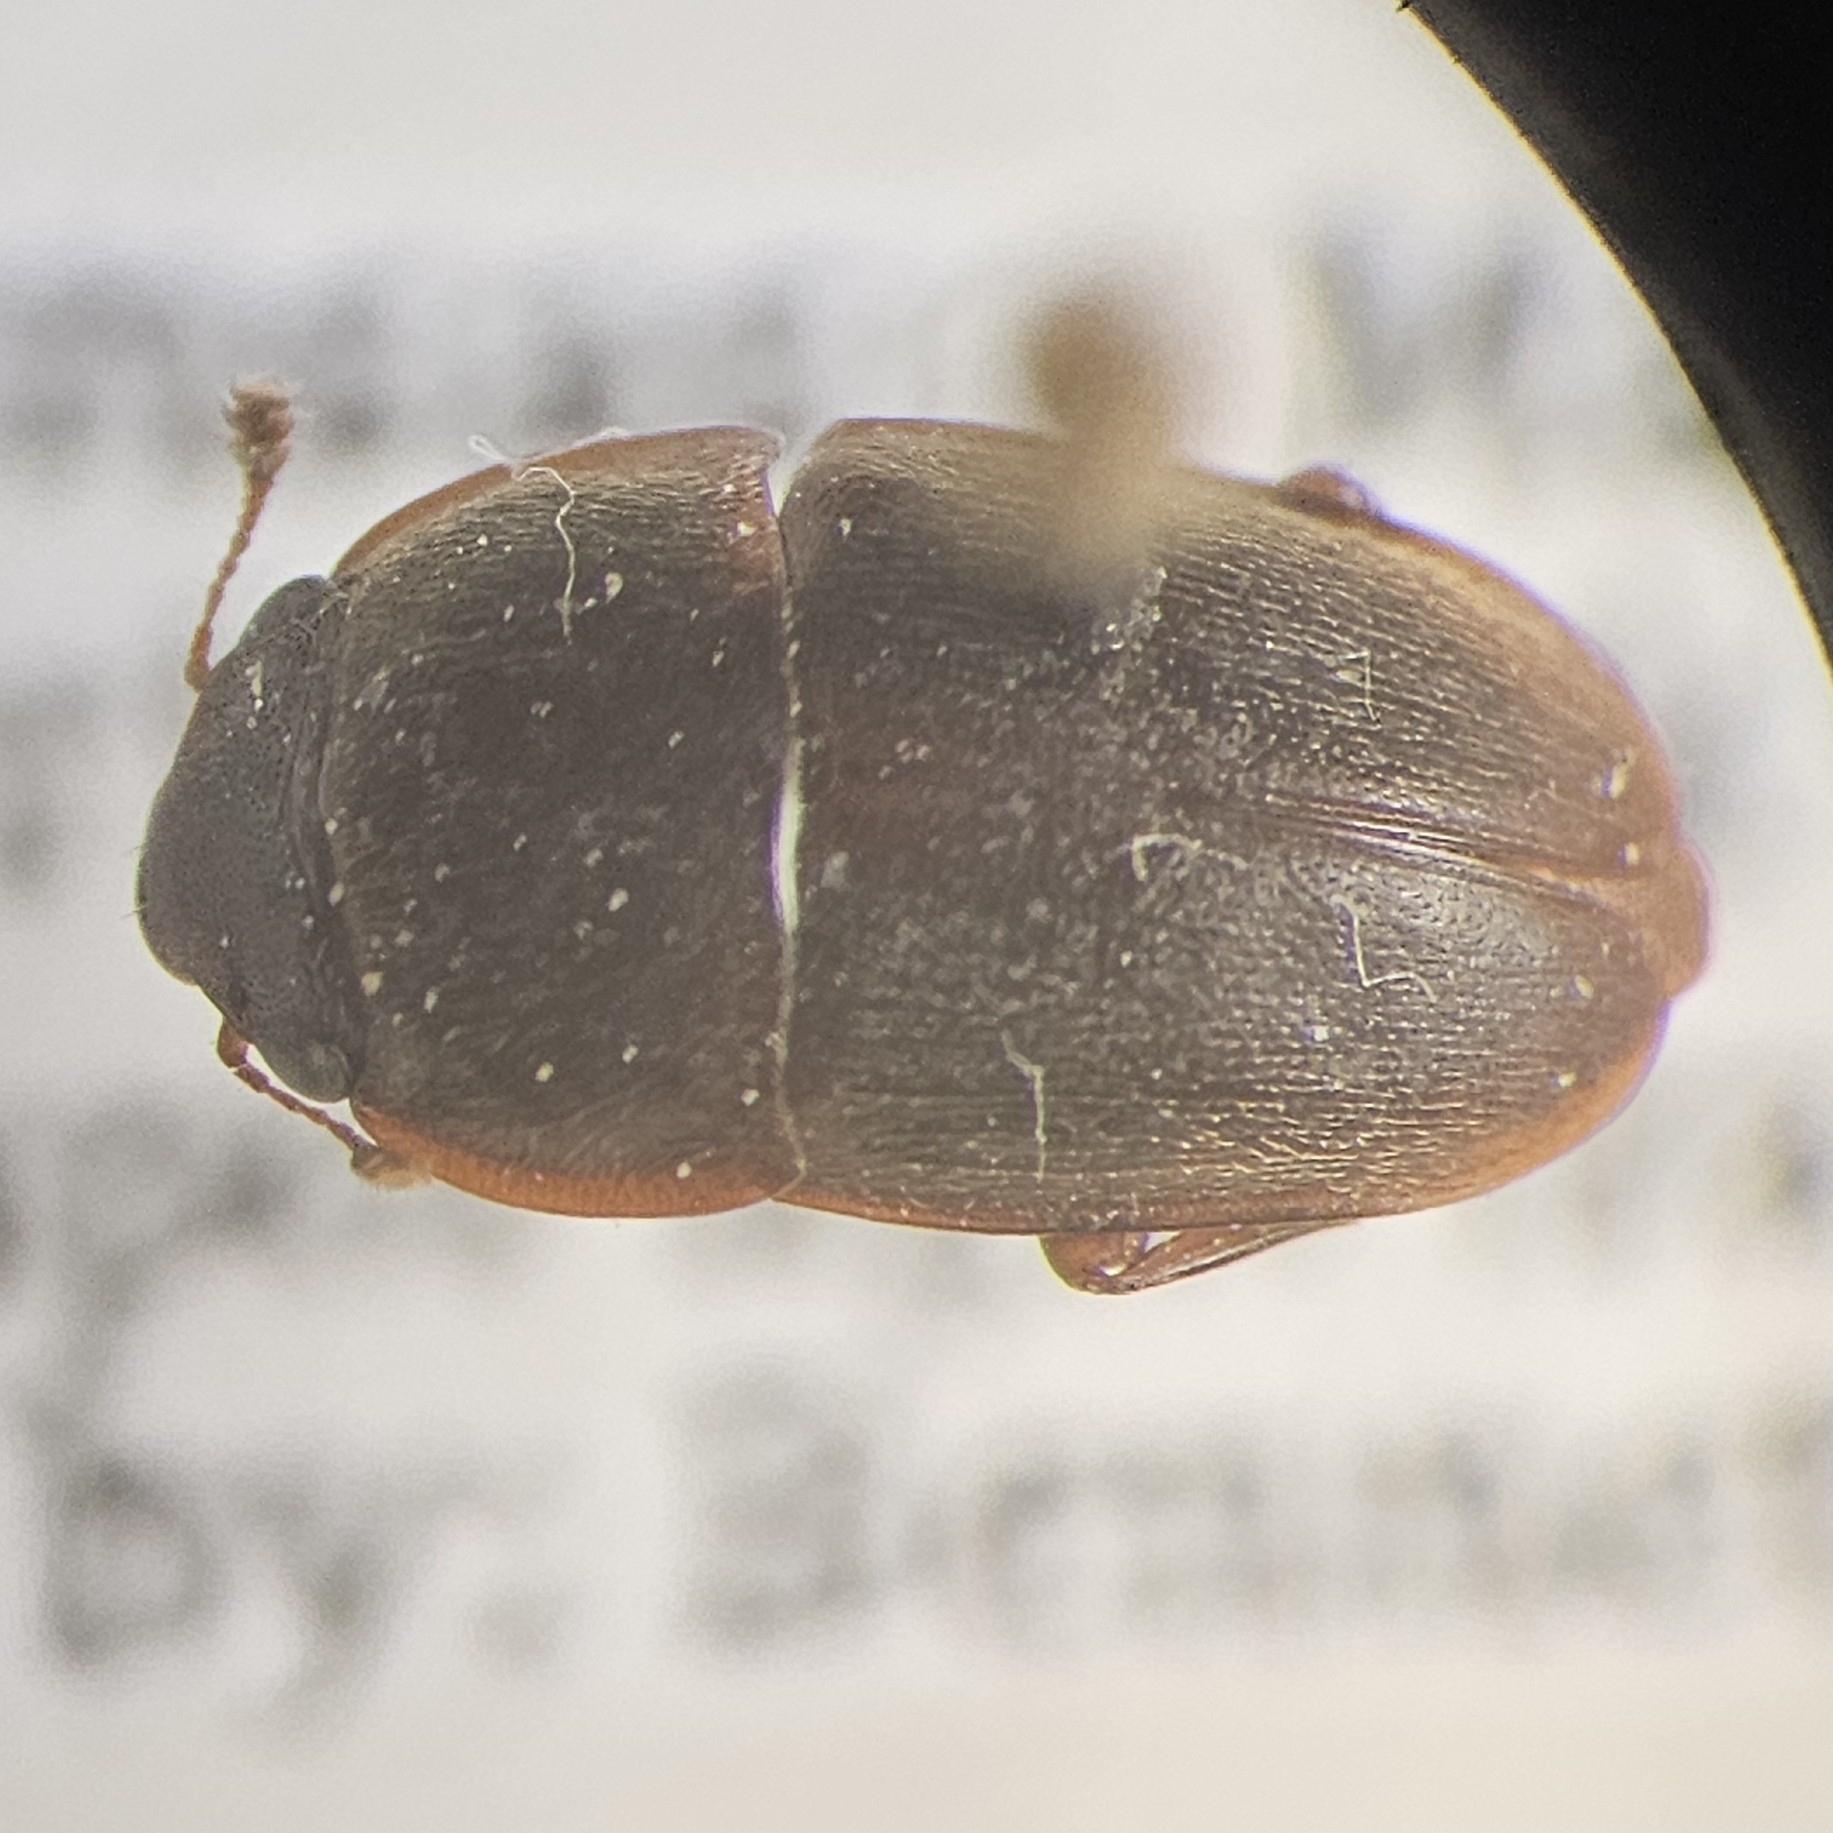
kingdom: Animalia
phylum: Arthropoda
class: Insecta
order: Coleoptera
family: Nitidulidae
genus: Cryptarcha
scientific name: Cryptarcha ampla
